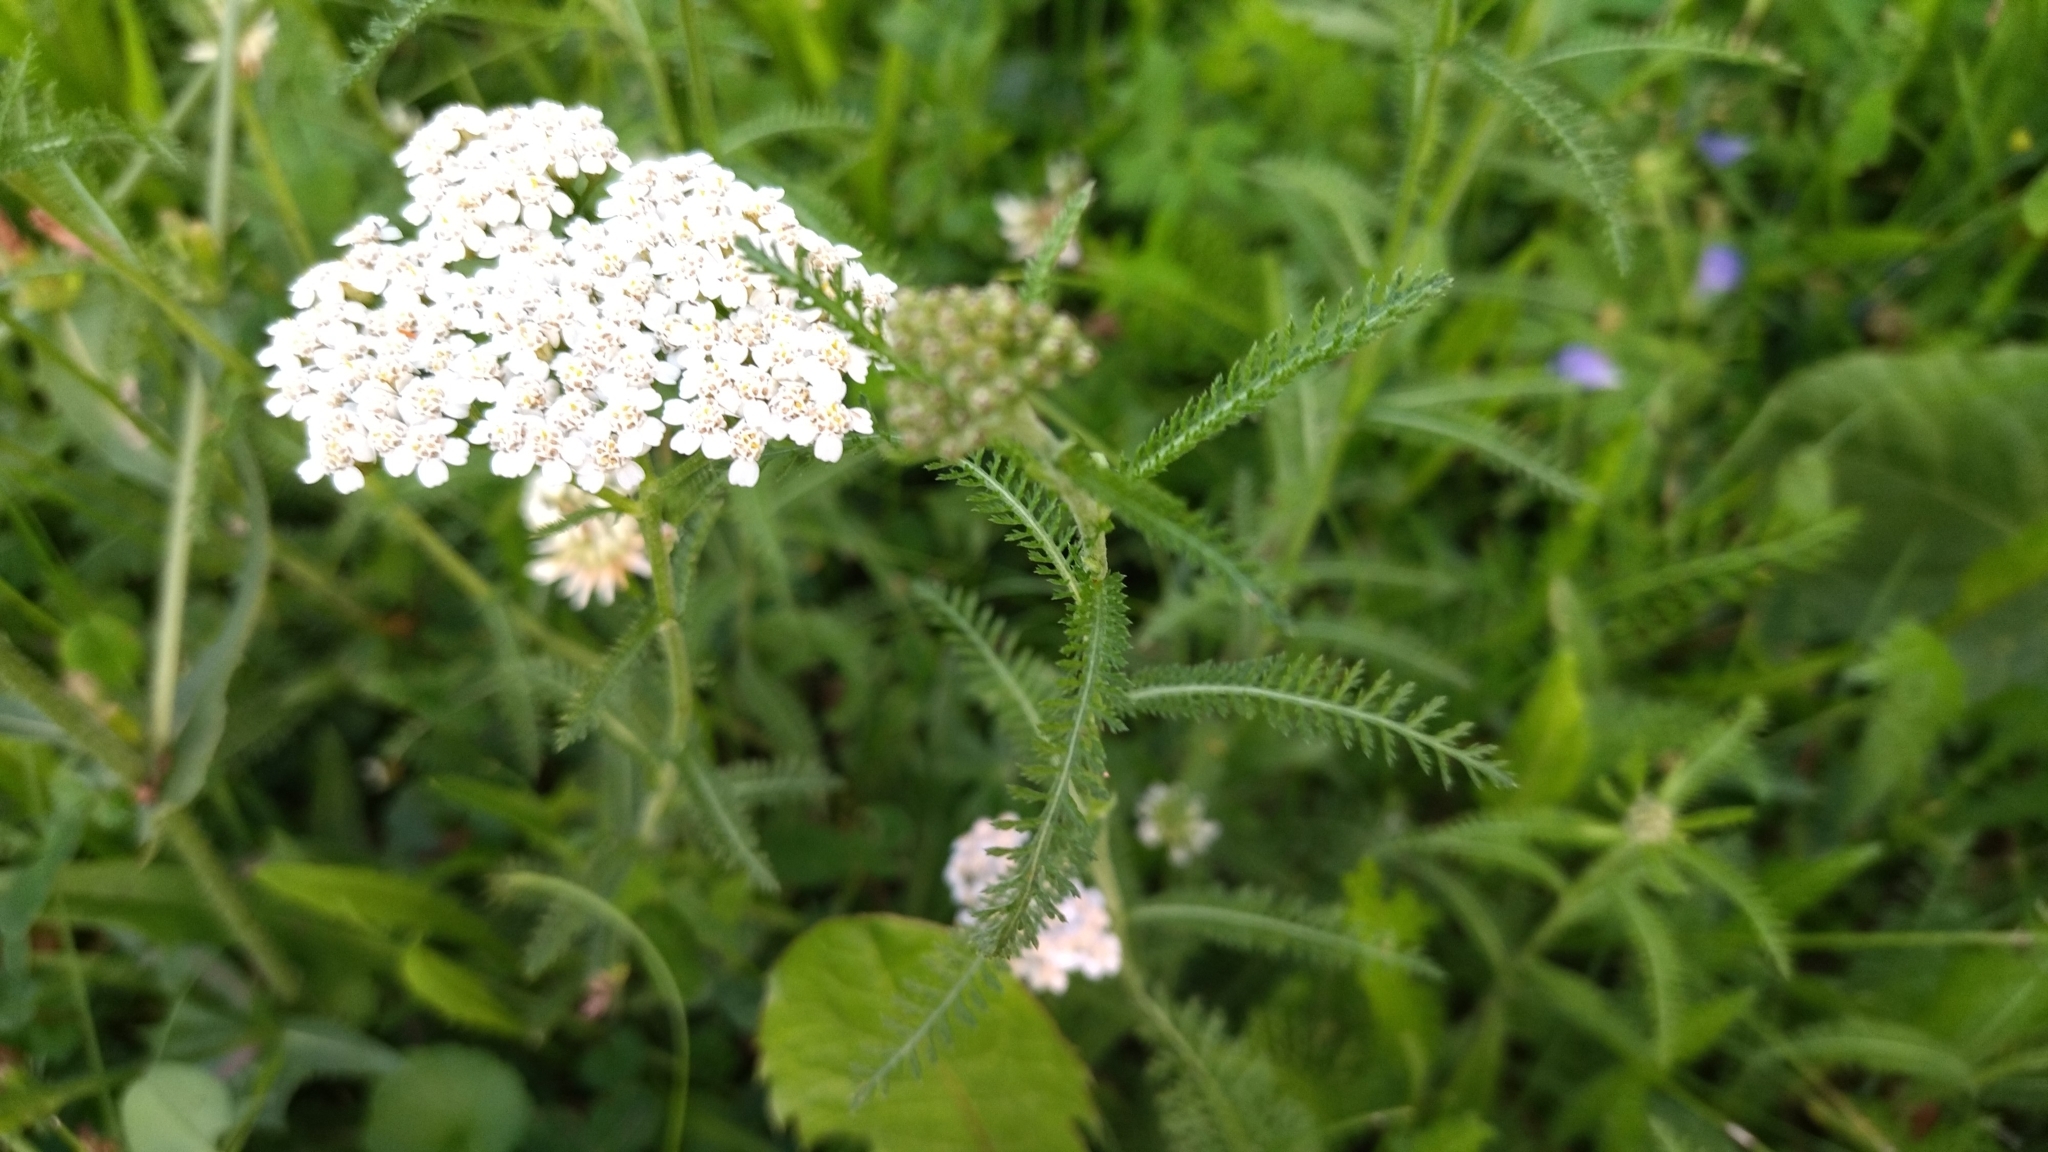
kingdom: Plantae
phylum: Tracheophyta
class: Magnoliopsida
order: Asterales
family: Asteraceae
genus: Achillea
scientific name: Achillea millefolium
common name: Yarrow
